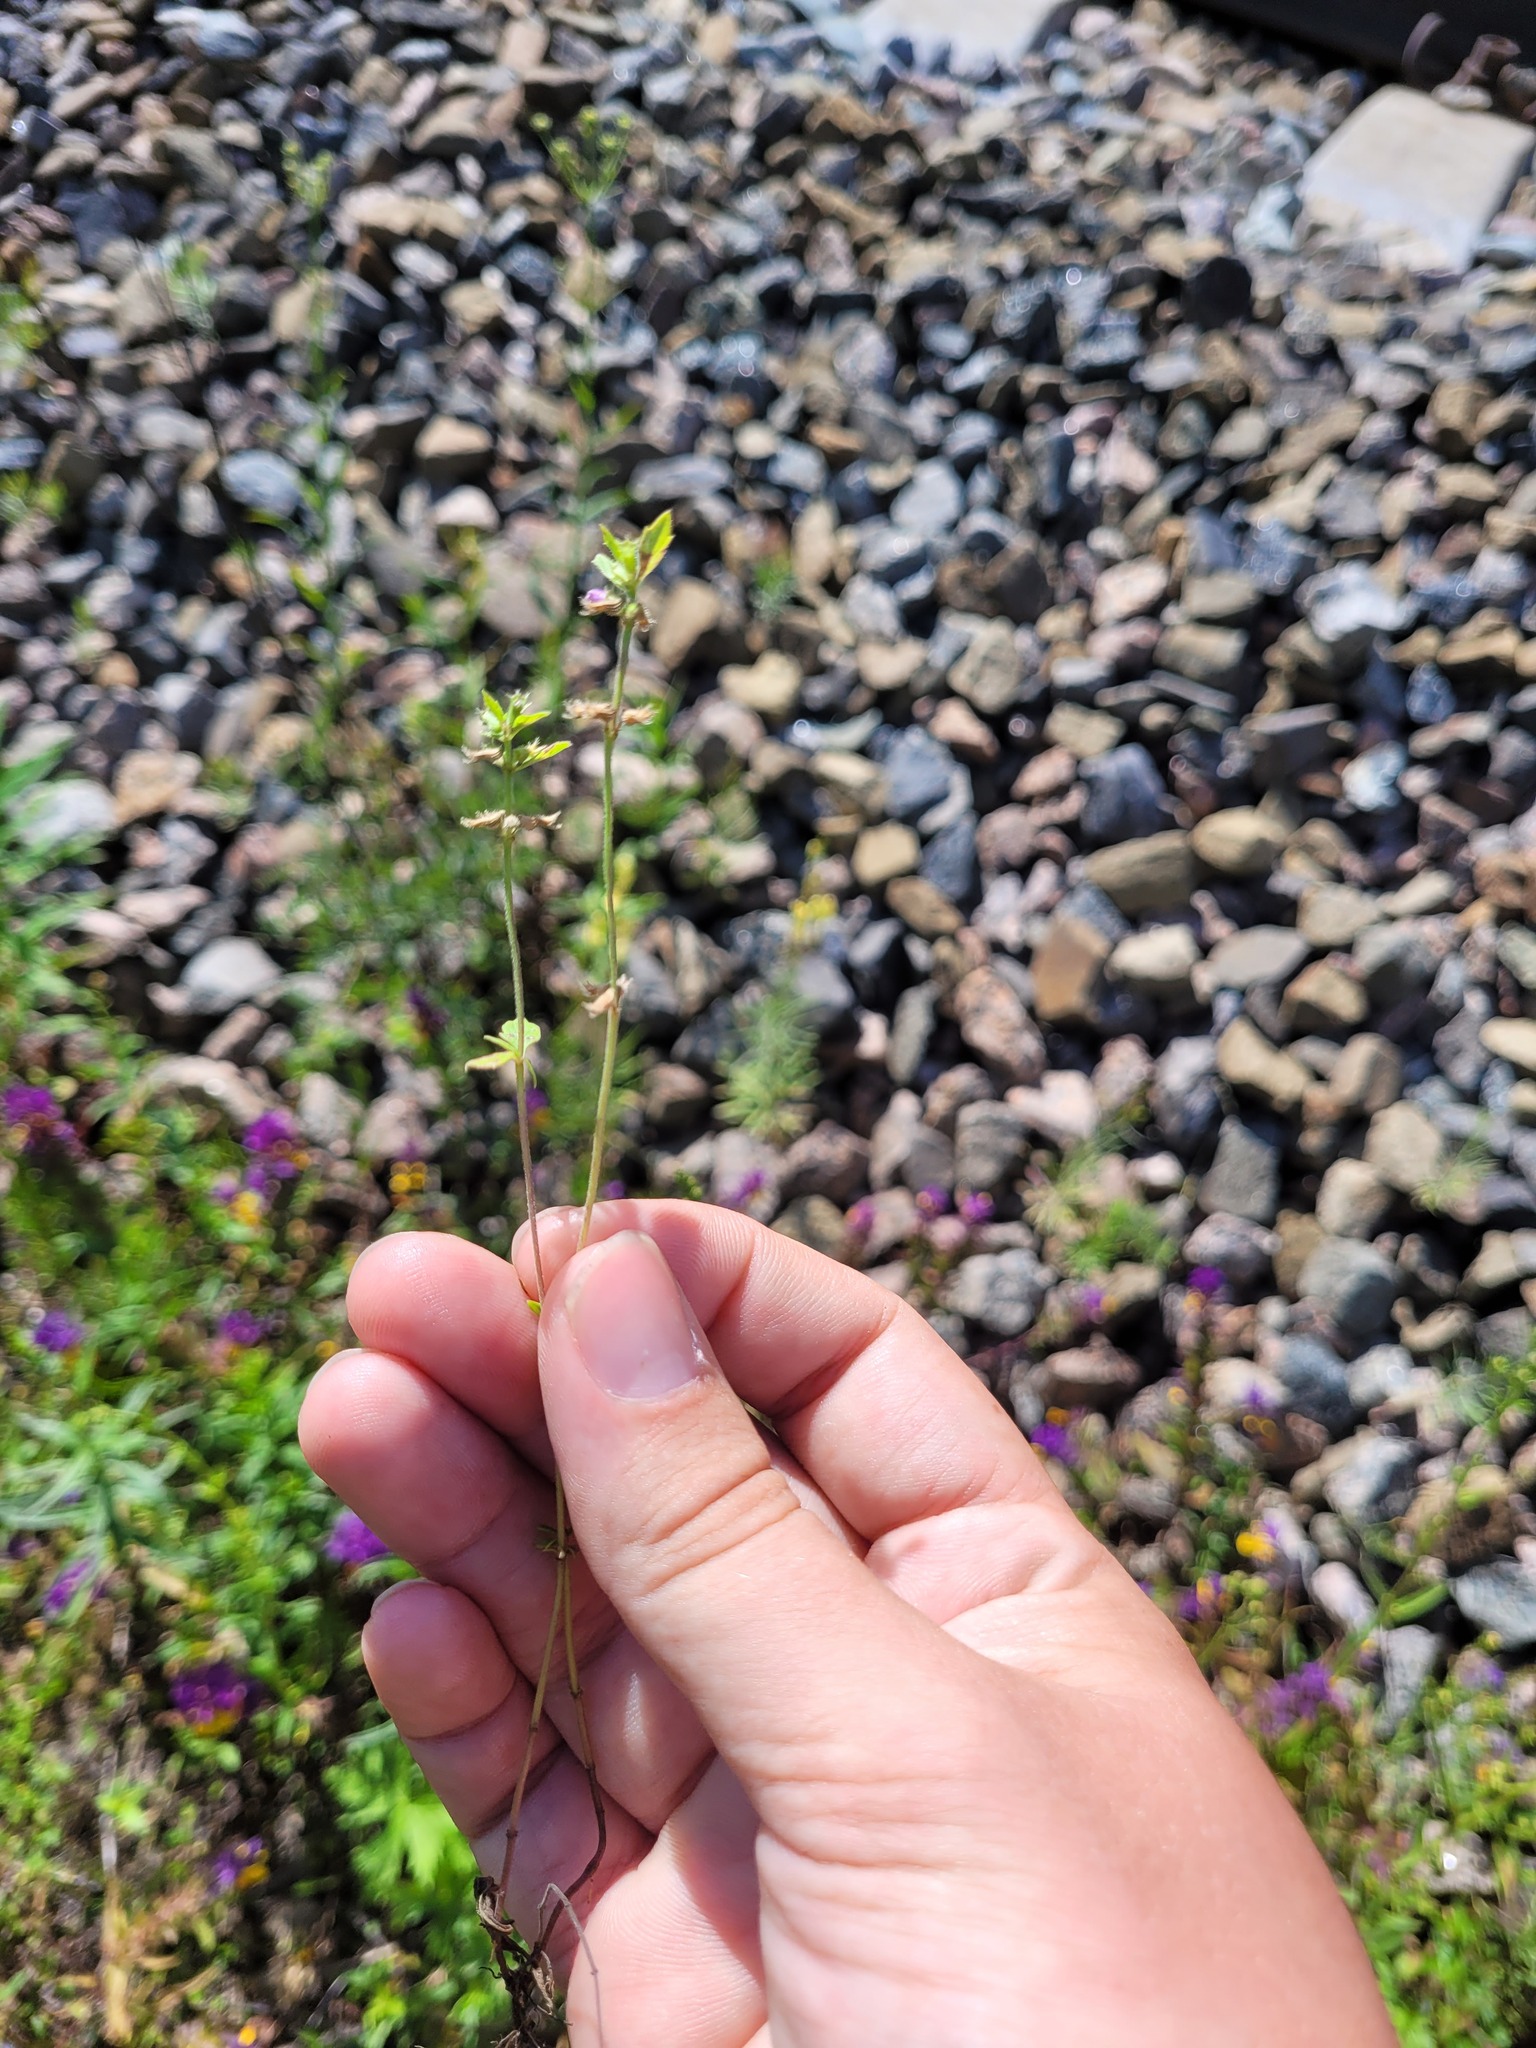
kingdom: Plantae
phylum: Tracheophyta
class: Magnoliopsida
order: Lamiales
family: Lamiaceae
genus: Clinopodium
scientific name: Clinopodium acinos
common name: Basil thyme
